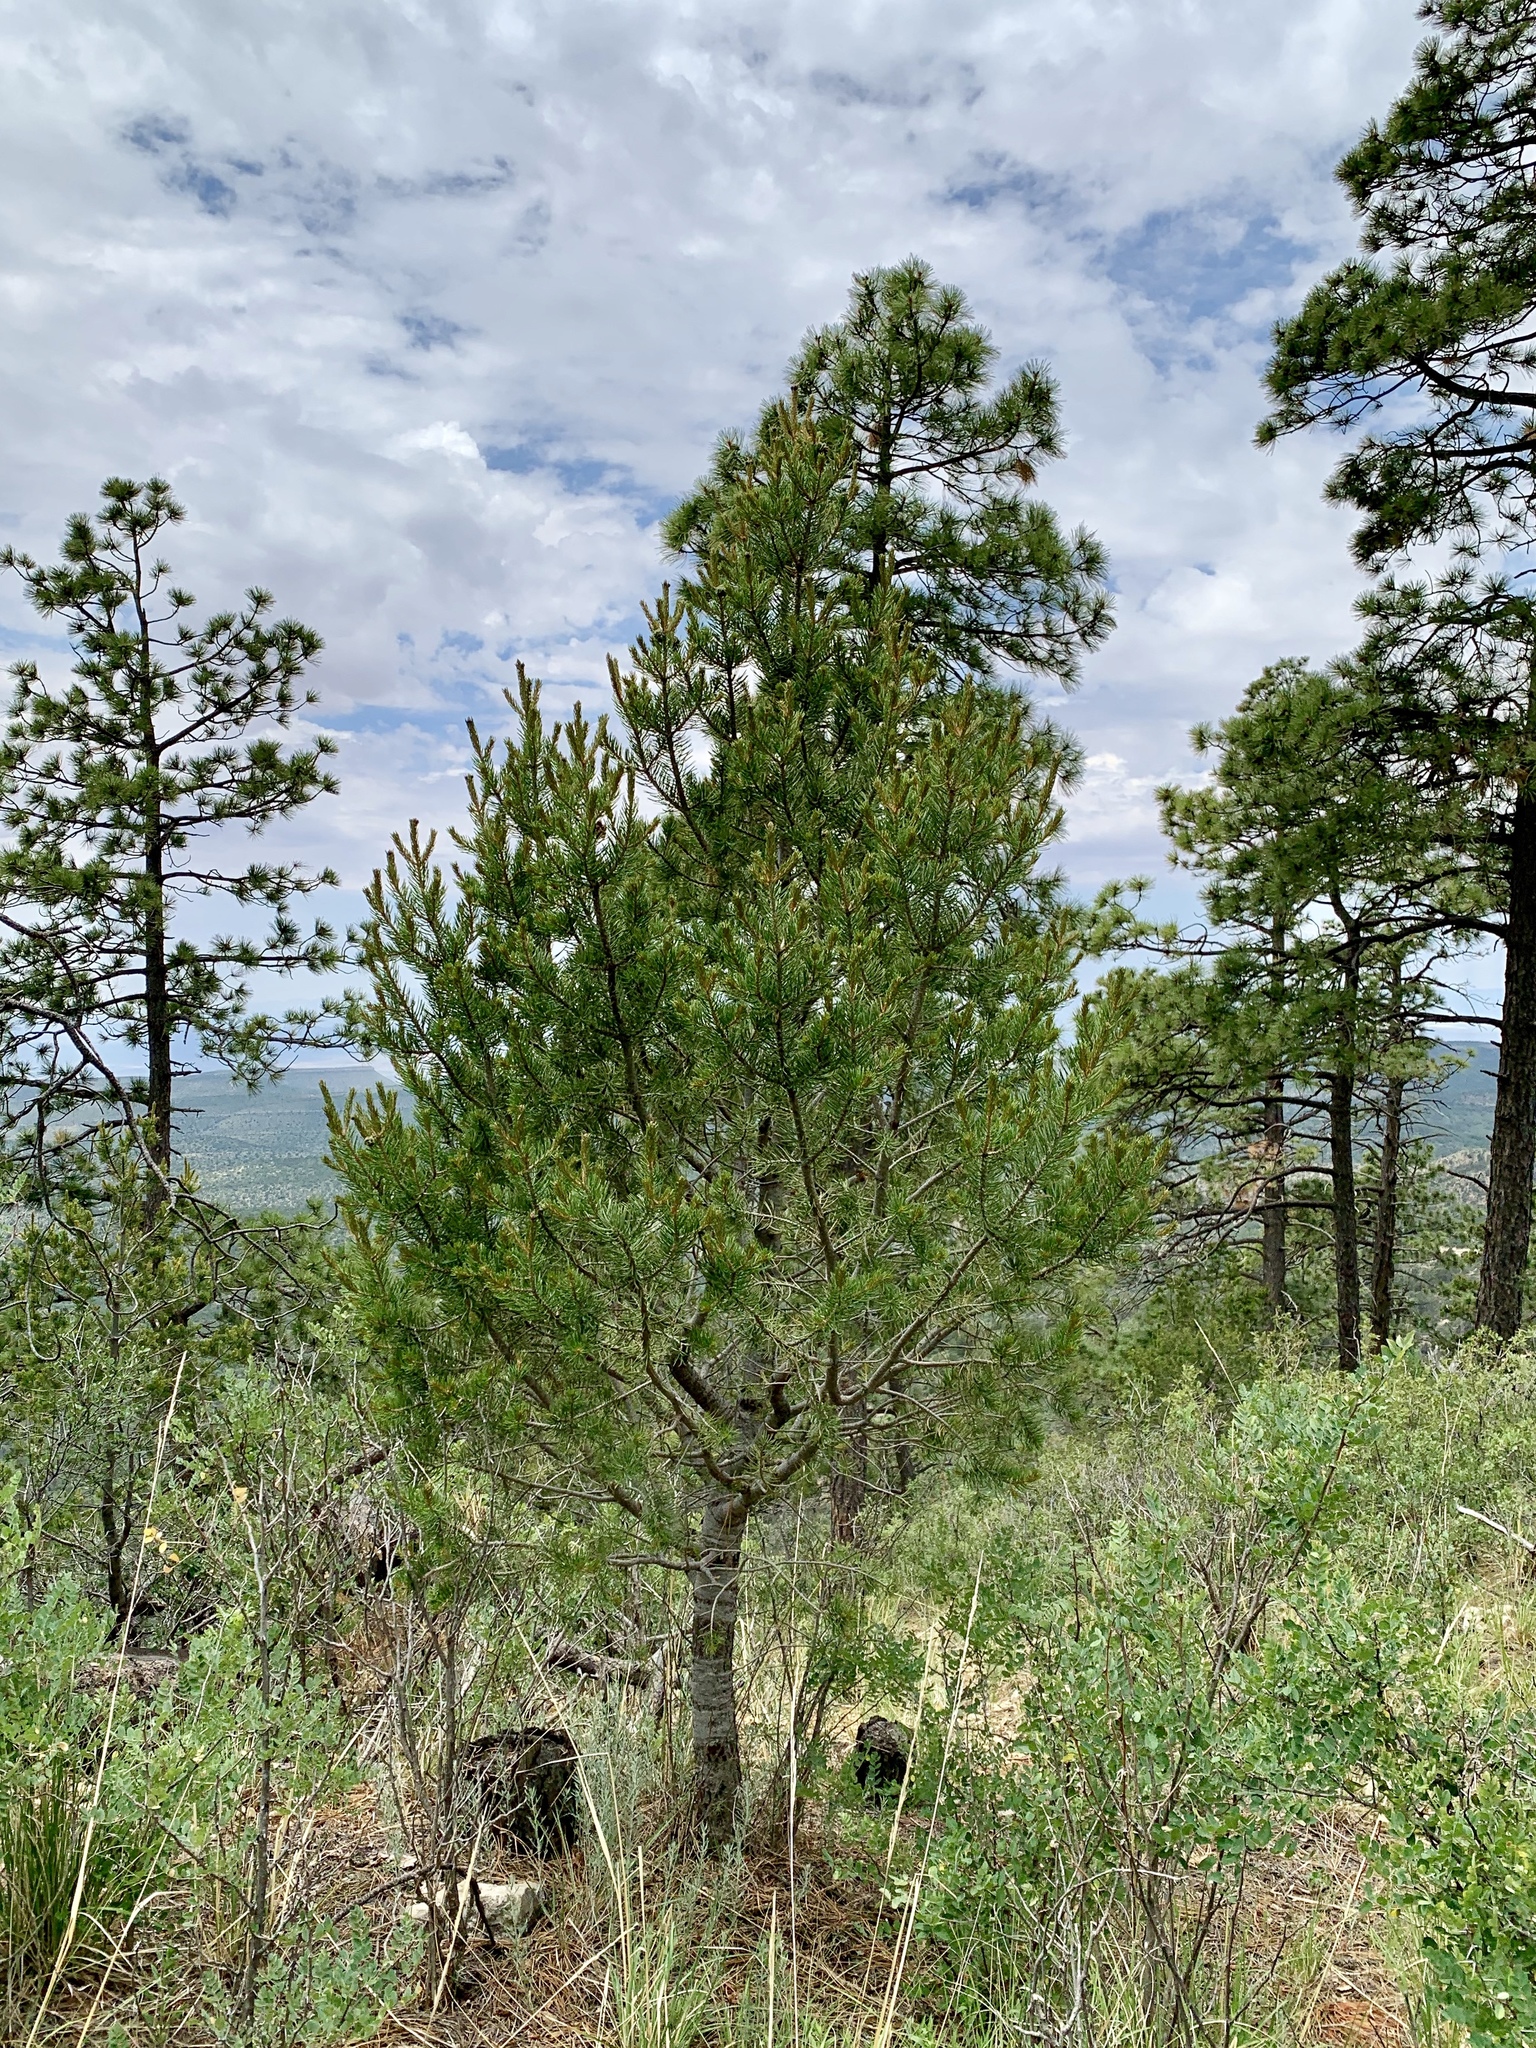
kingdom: Plantae
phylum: Tracheophyta
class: Pinopsida
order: Pinales
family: Pinaceae
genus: Pinus
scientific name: Pinus edulis
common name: Colorado pinyon
